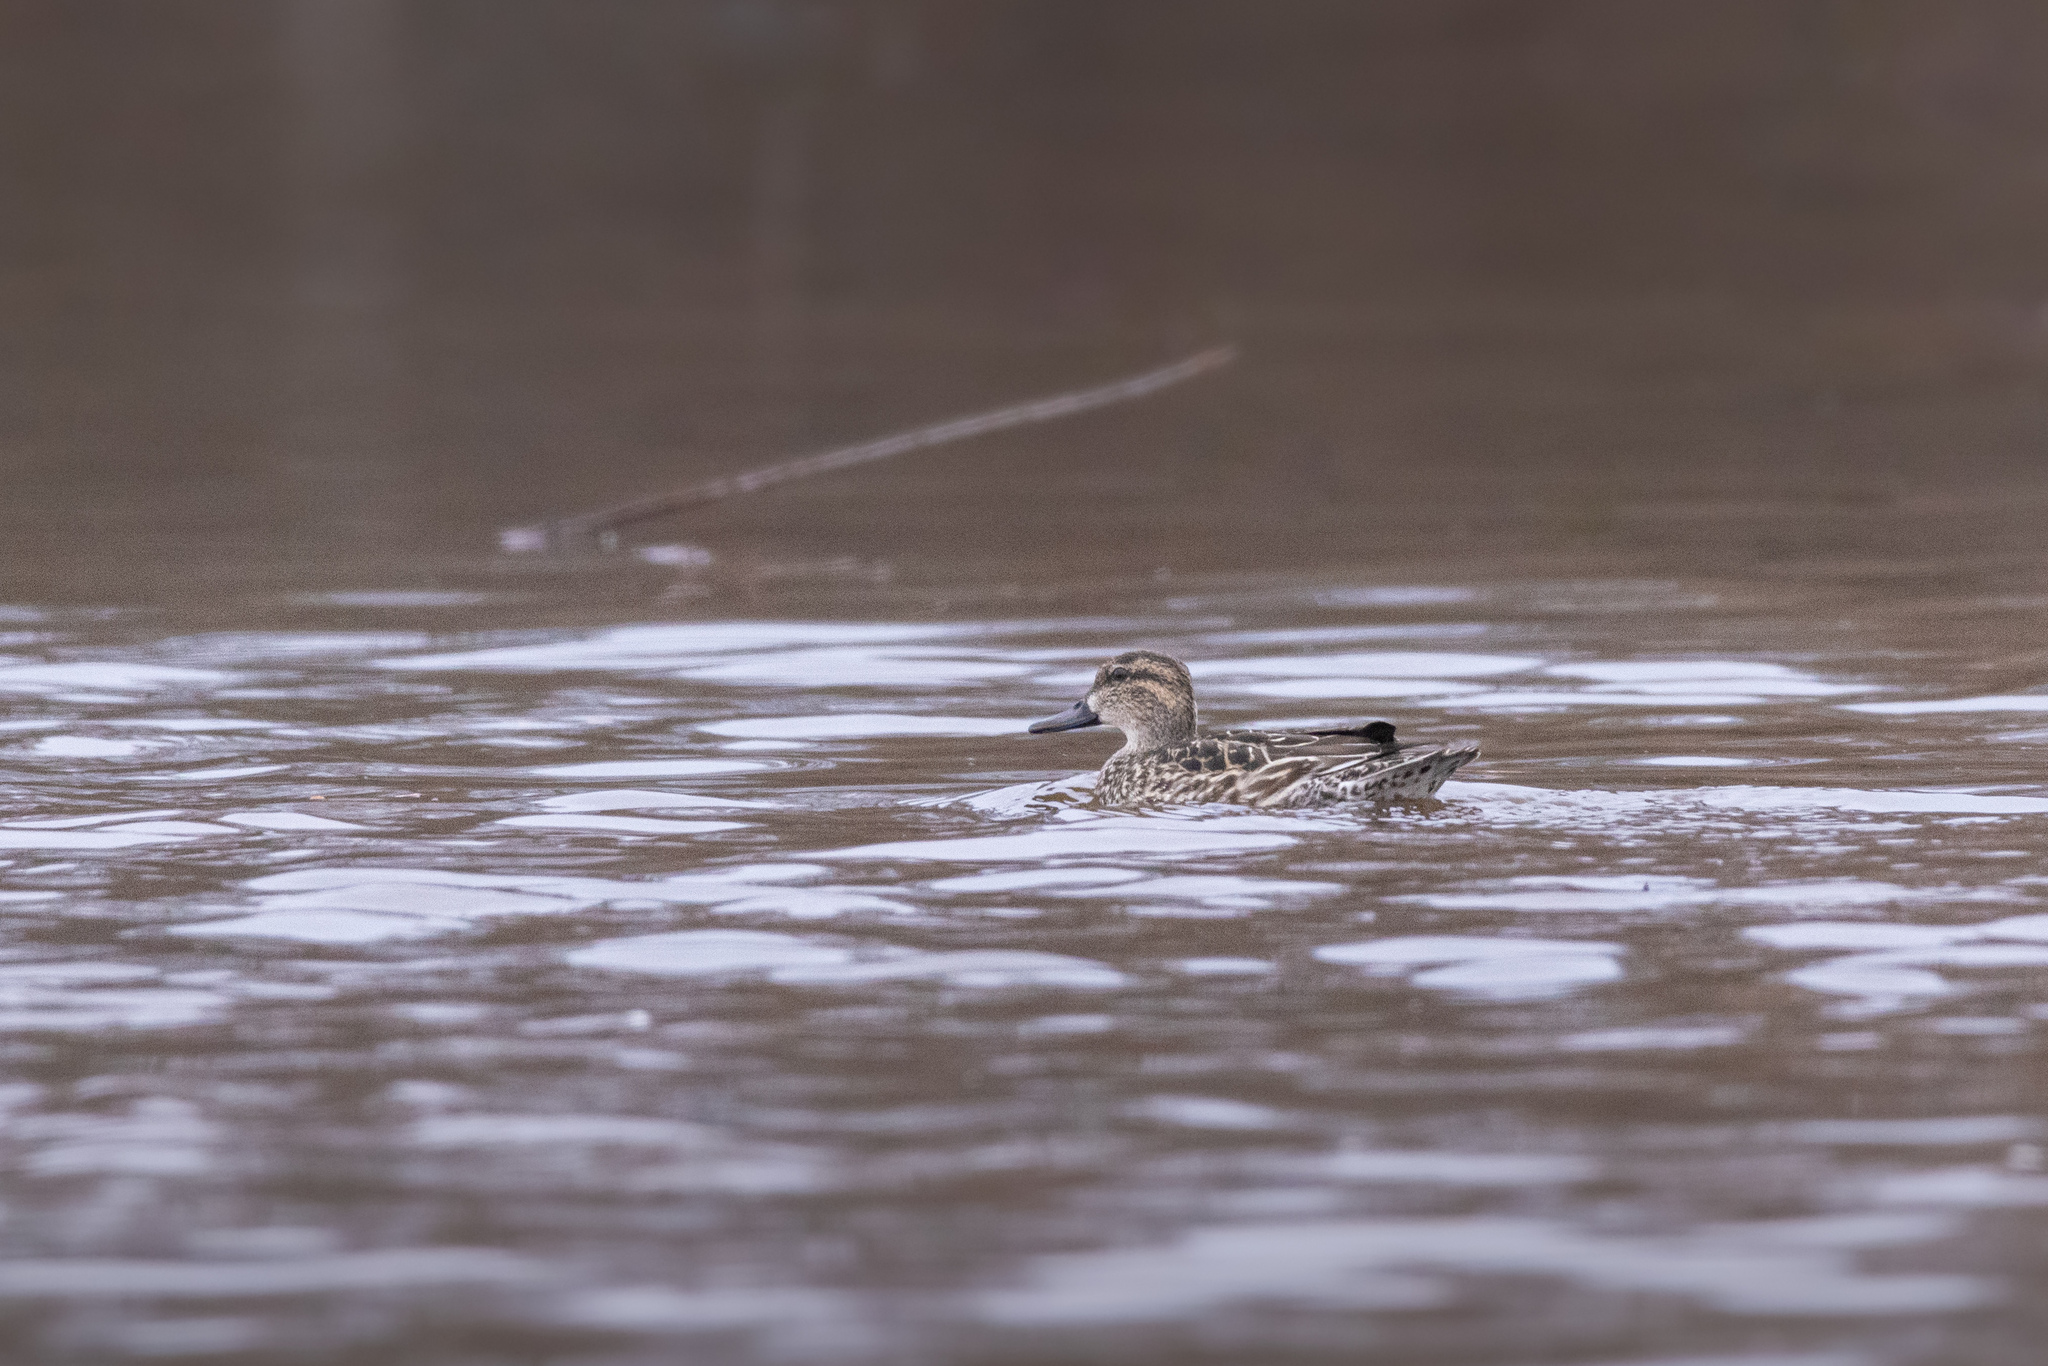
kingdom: Animalia
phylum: Chordata
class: Aves
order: Anseriformes
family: Anatidae
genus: Anas
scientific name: Anas crecca
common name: Eurasian teal
